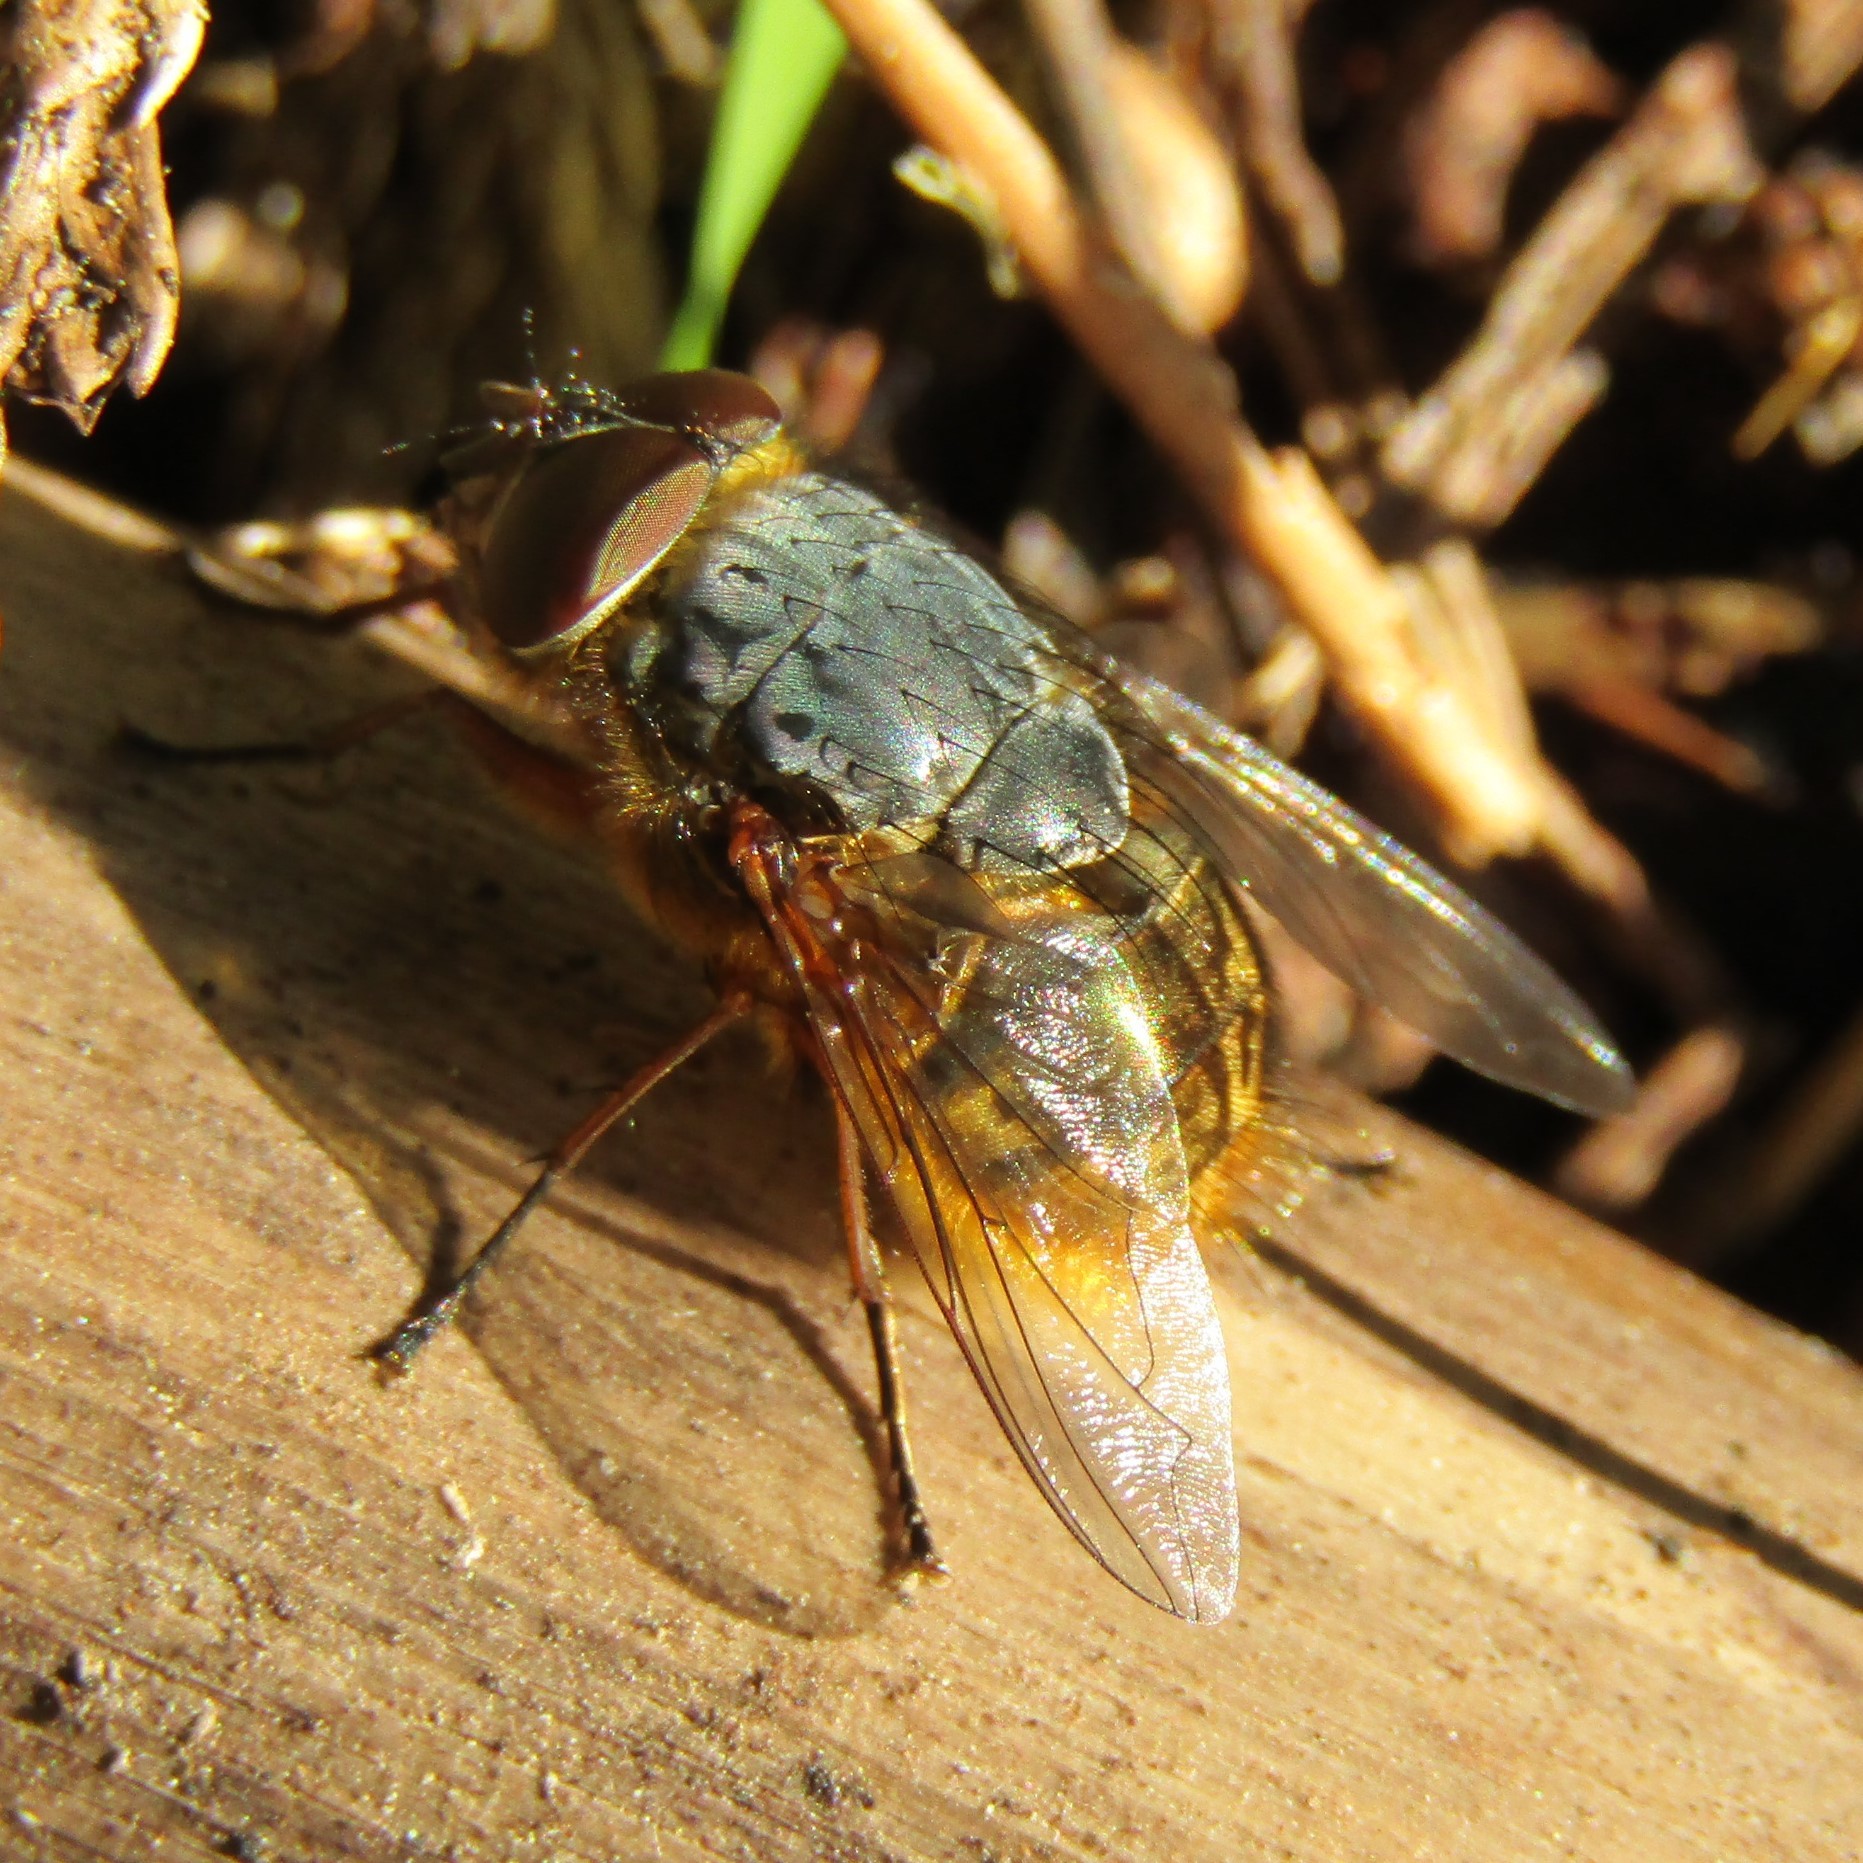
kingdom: Animalia
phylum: Arthropoda
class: Insecta
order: Diptera
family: Calliphoridae
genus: Calliphora
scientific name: Calliphora stygia
